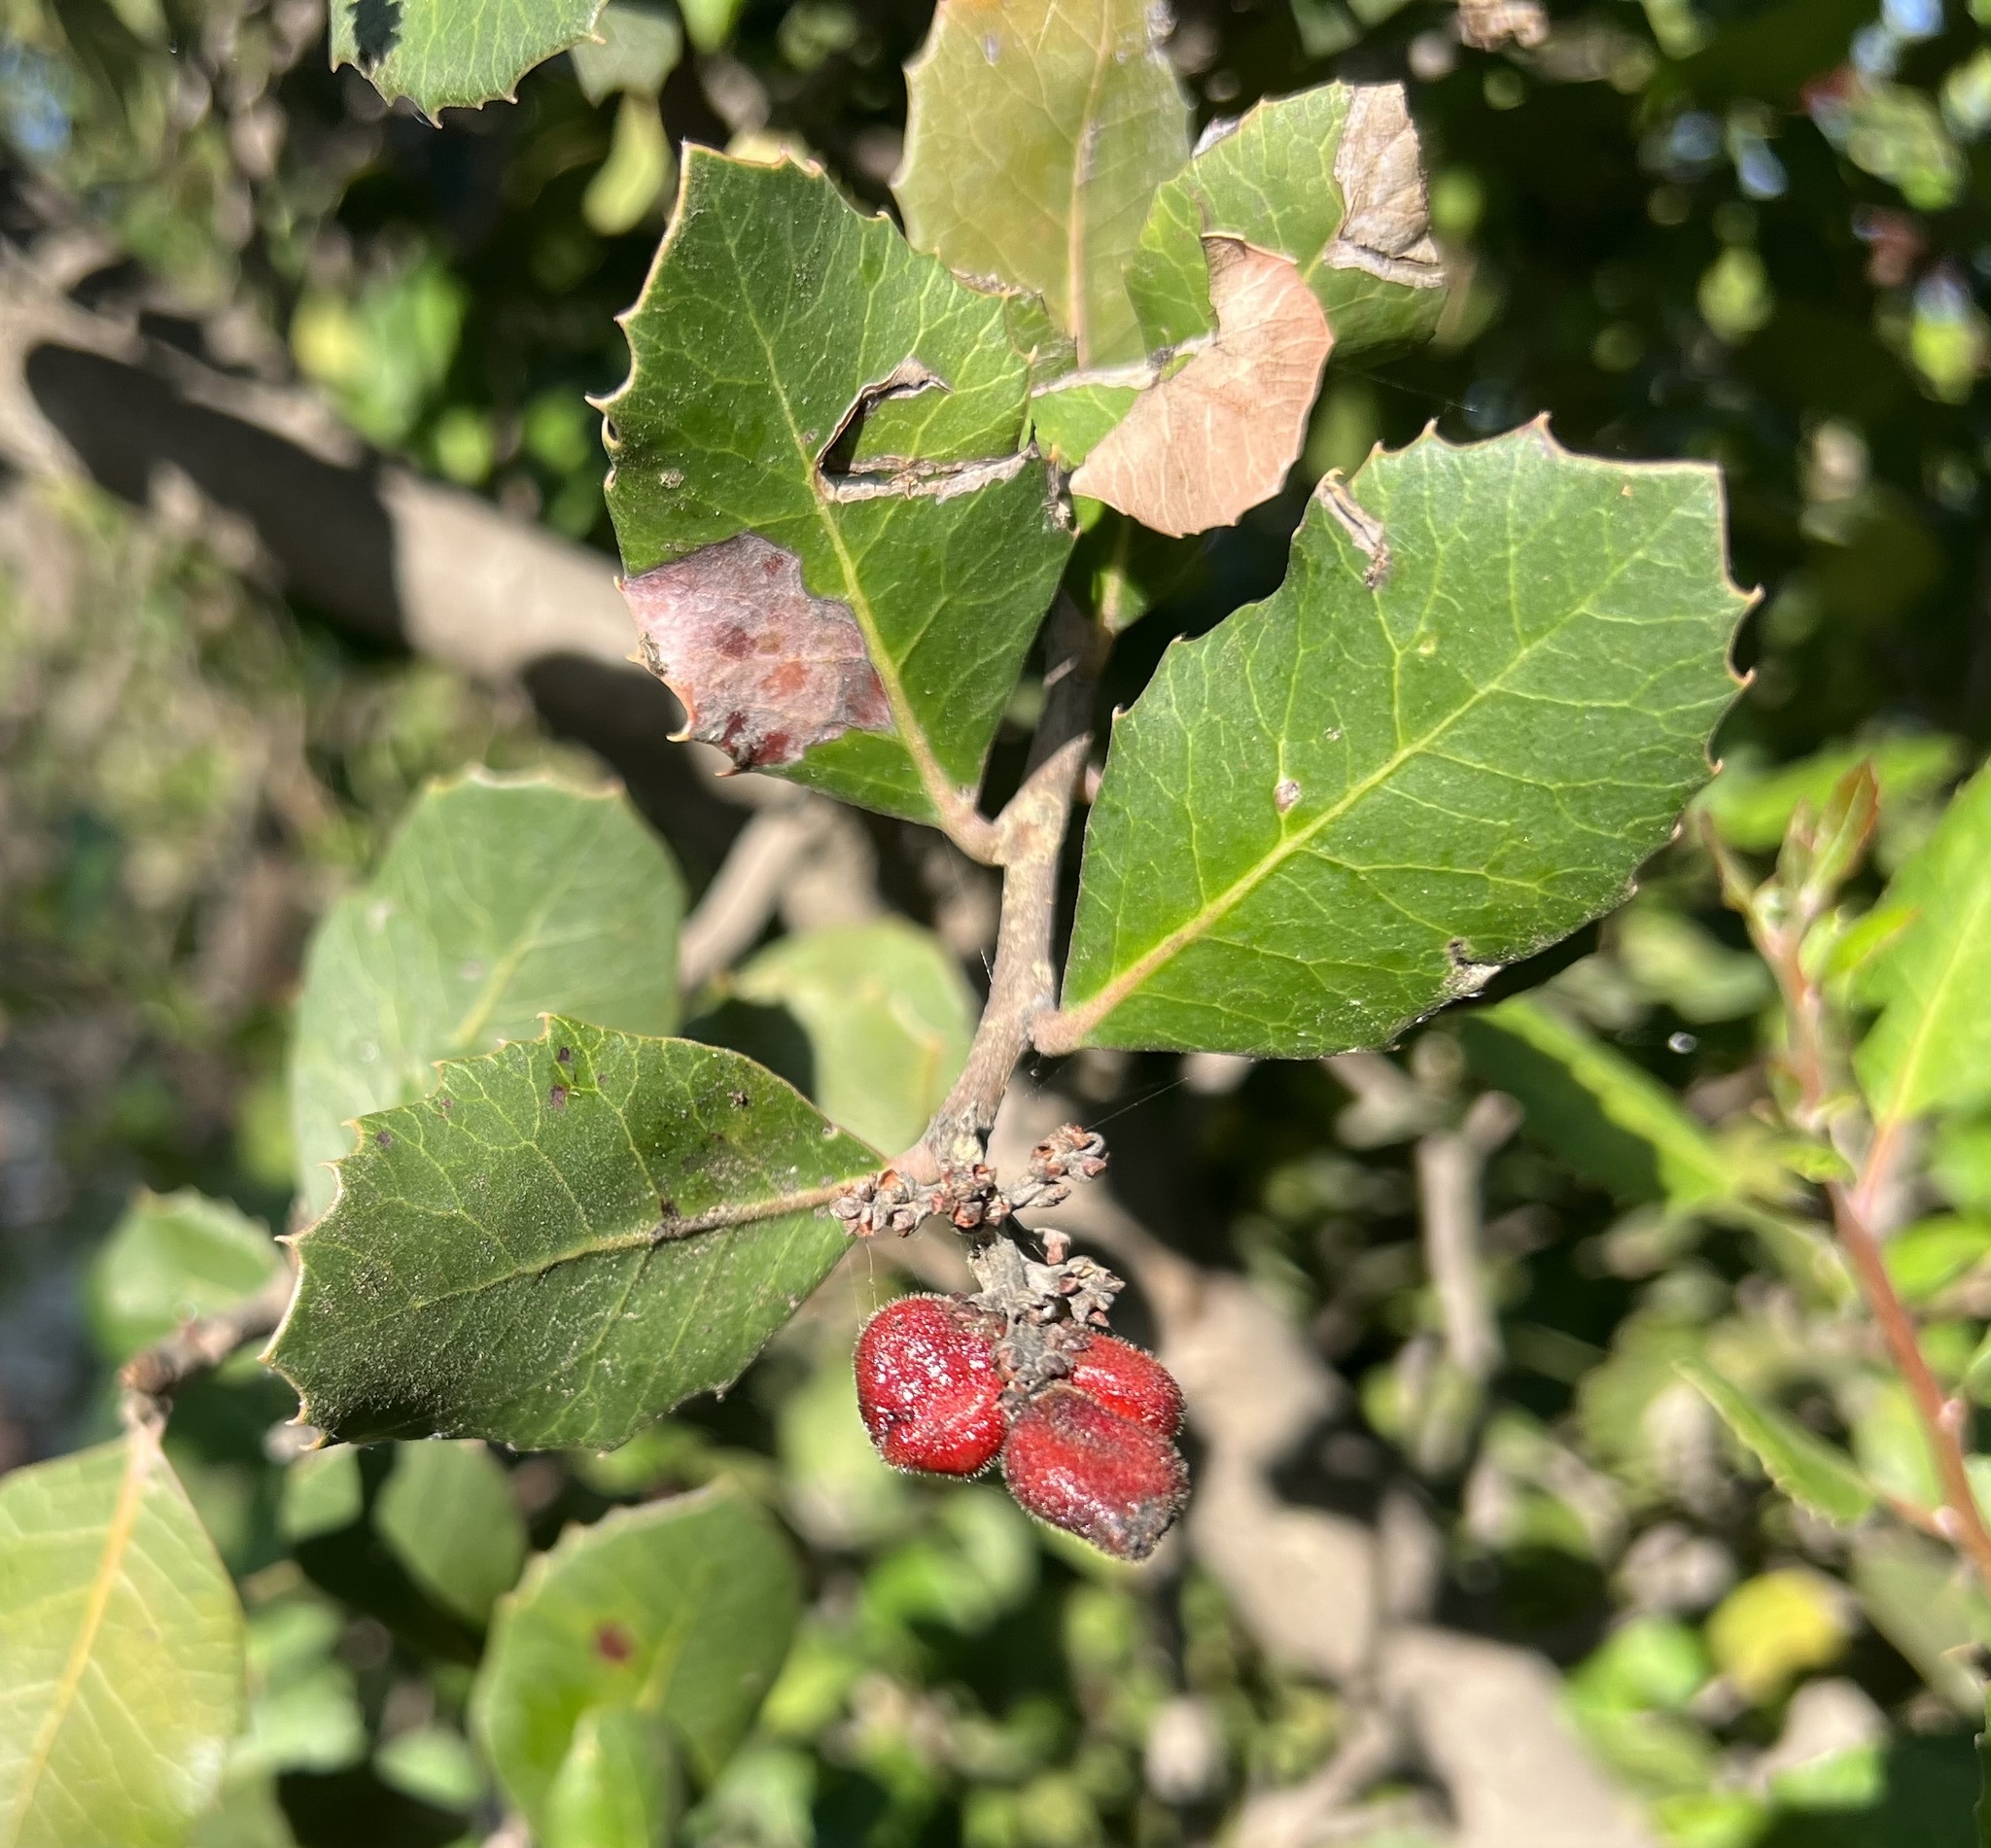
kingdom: Plantae
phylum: Tracheophyta
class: Magnoliopsida
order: Sapindales
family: Anacardiaceae
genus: Rhus
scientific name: Rhus integrifolia
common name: Lemonade sumac
